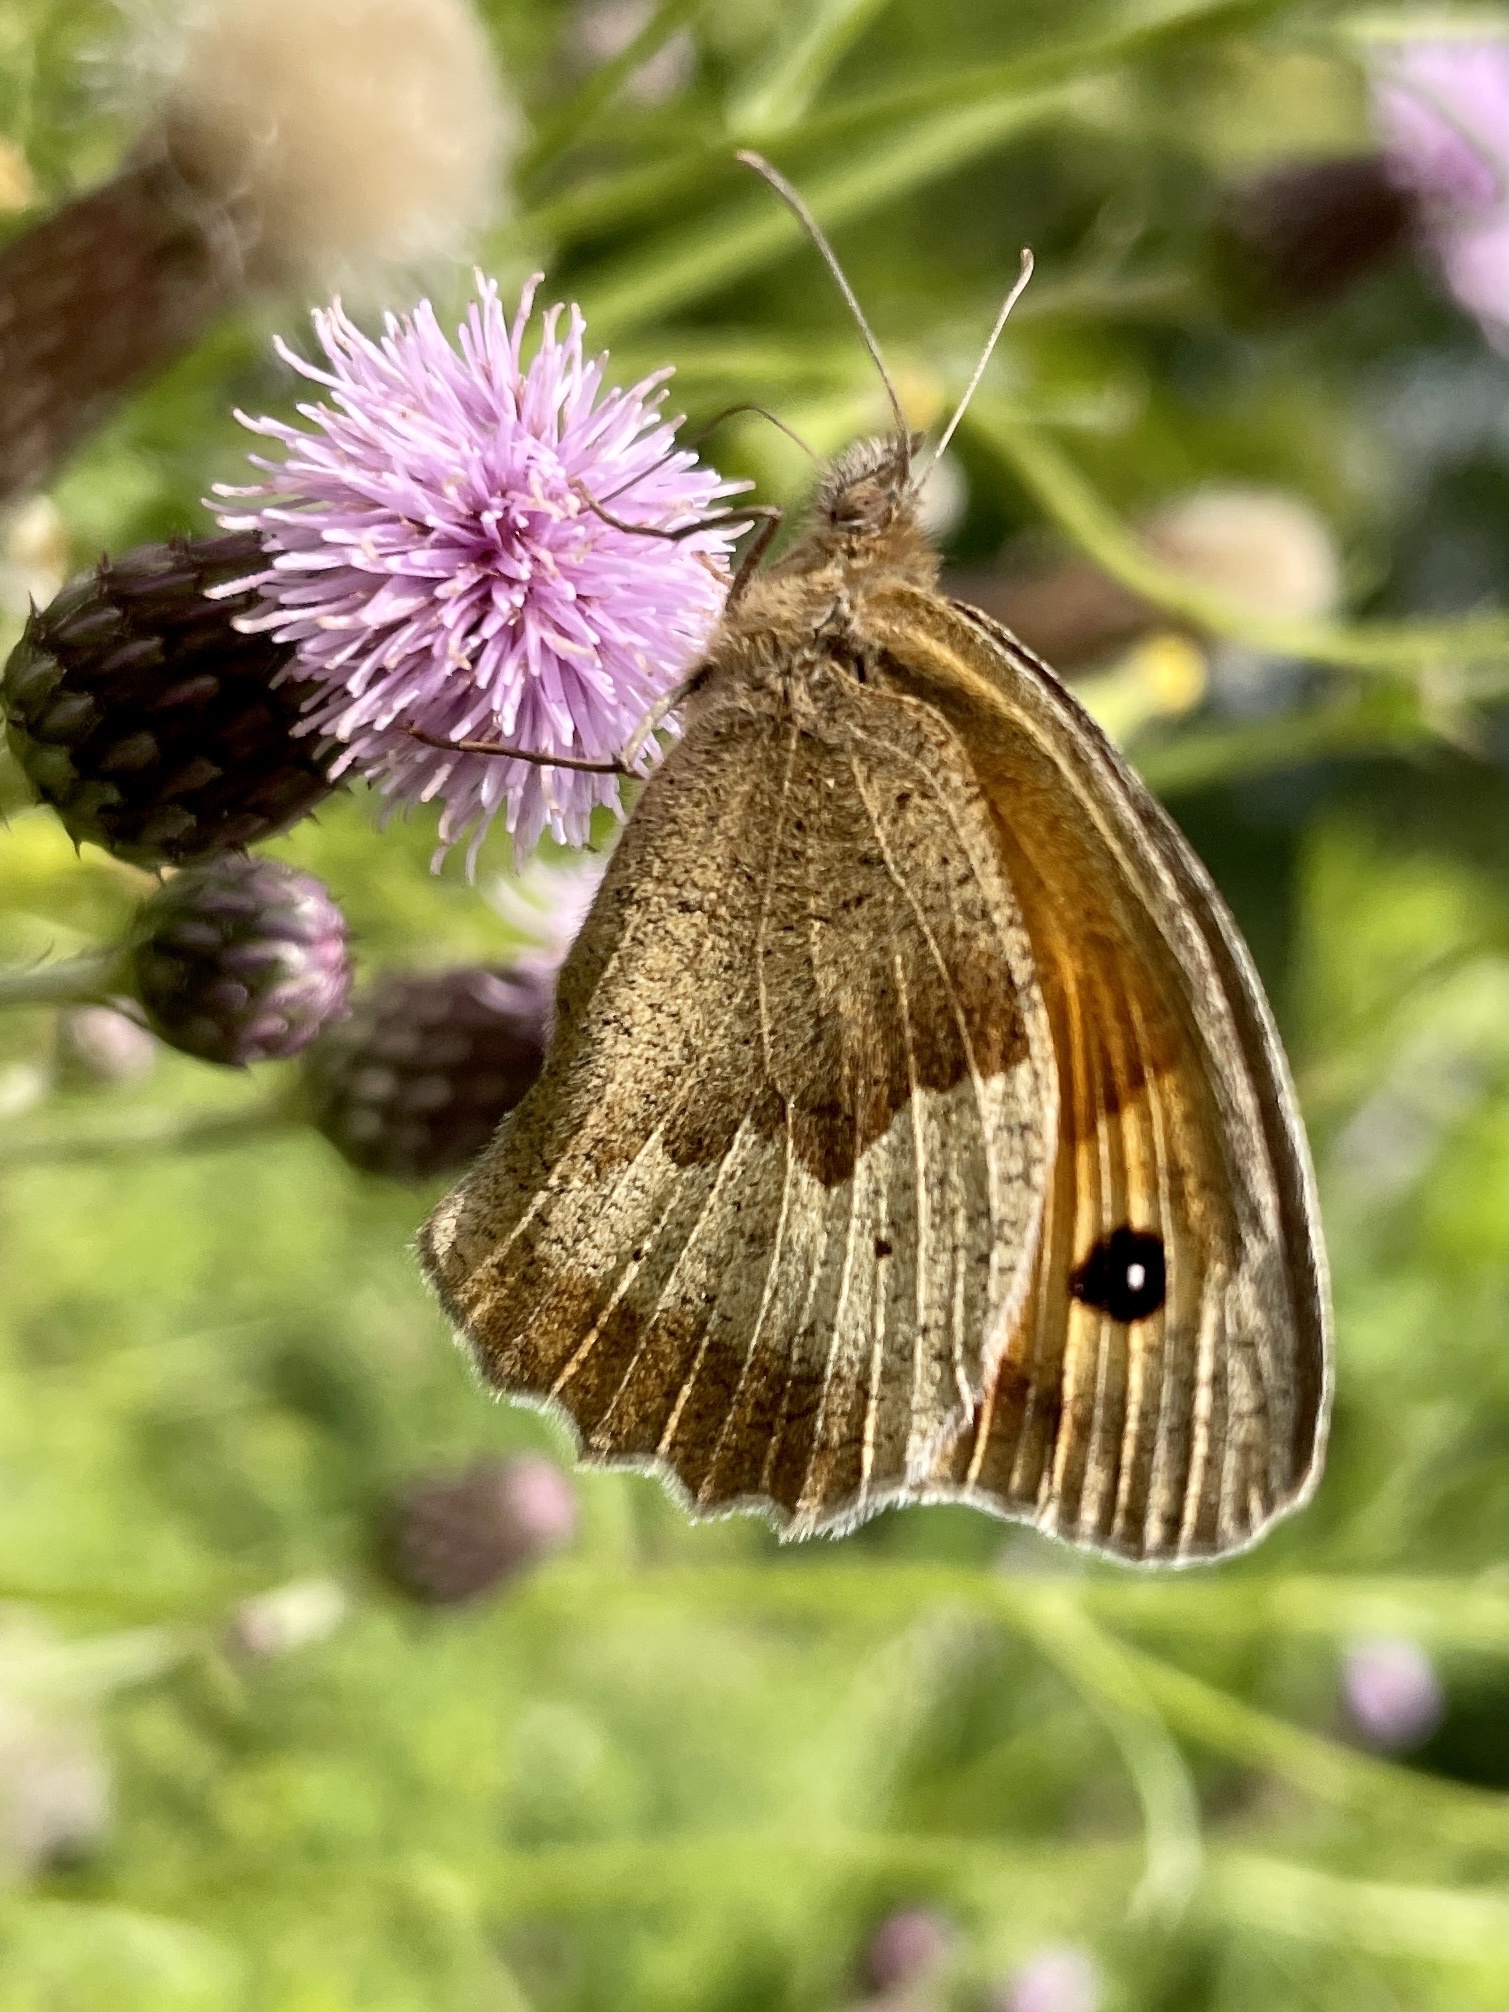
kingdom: Animalia
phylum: Arthropoda
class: Insecta
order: Lepidoptera
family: Nymphalidae
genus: Maniola
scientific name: Maniola jurtina
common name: Meadow brown
